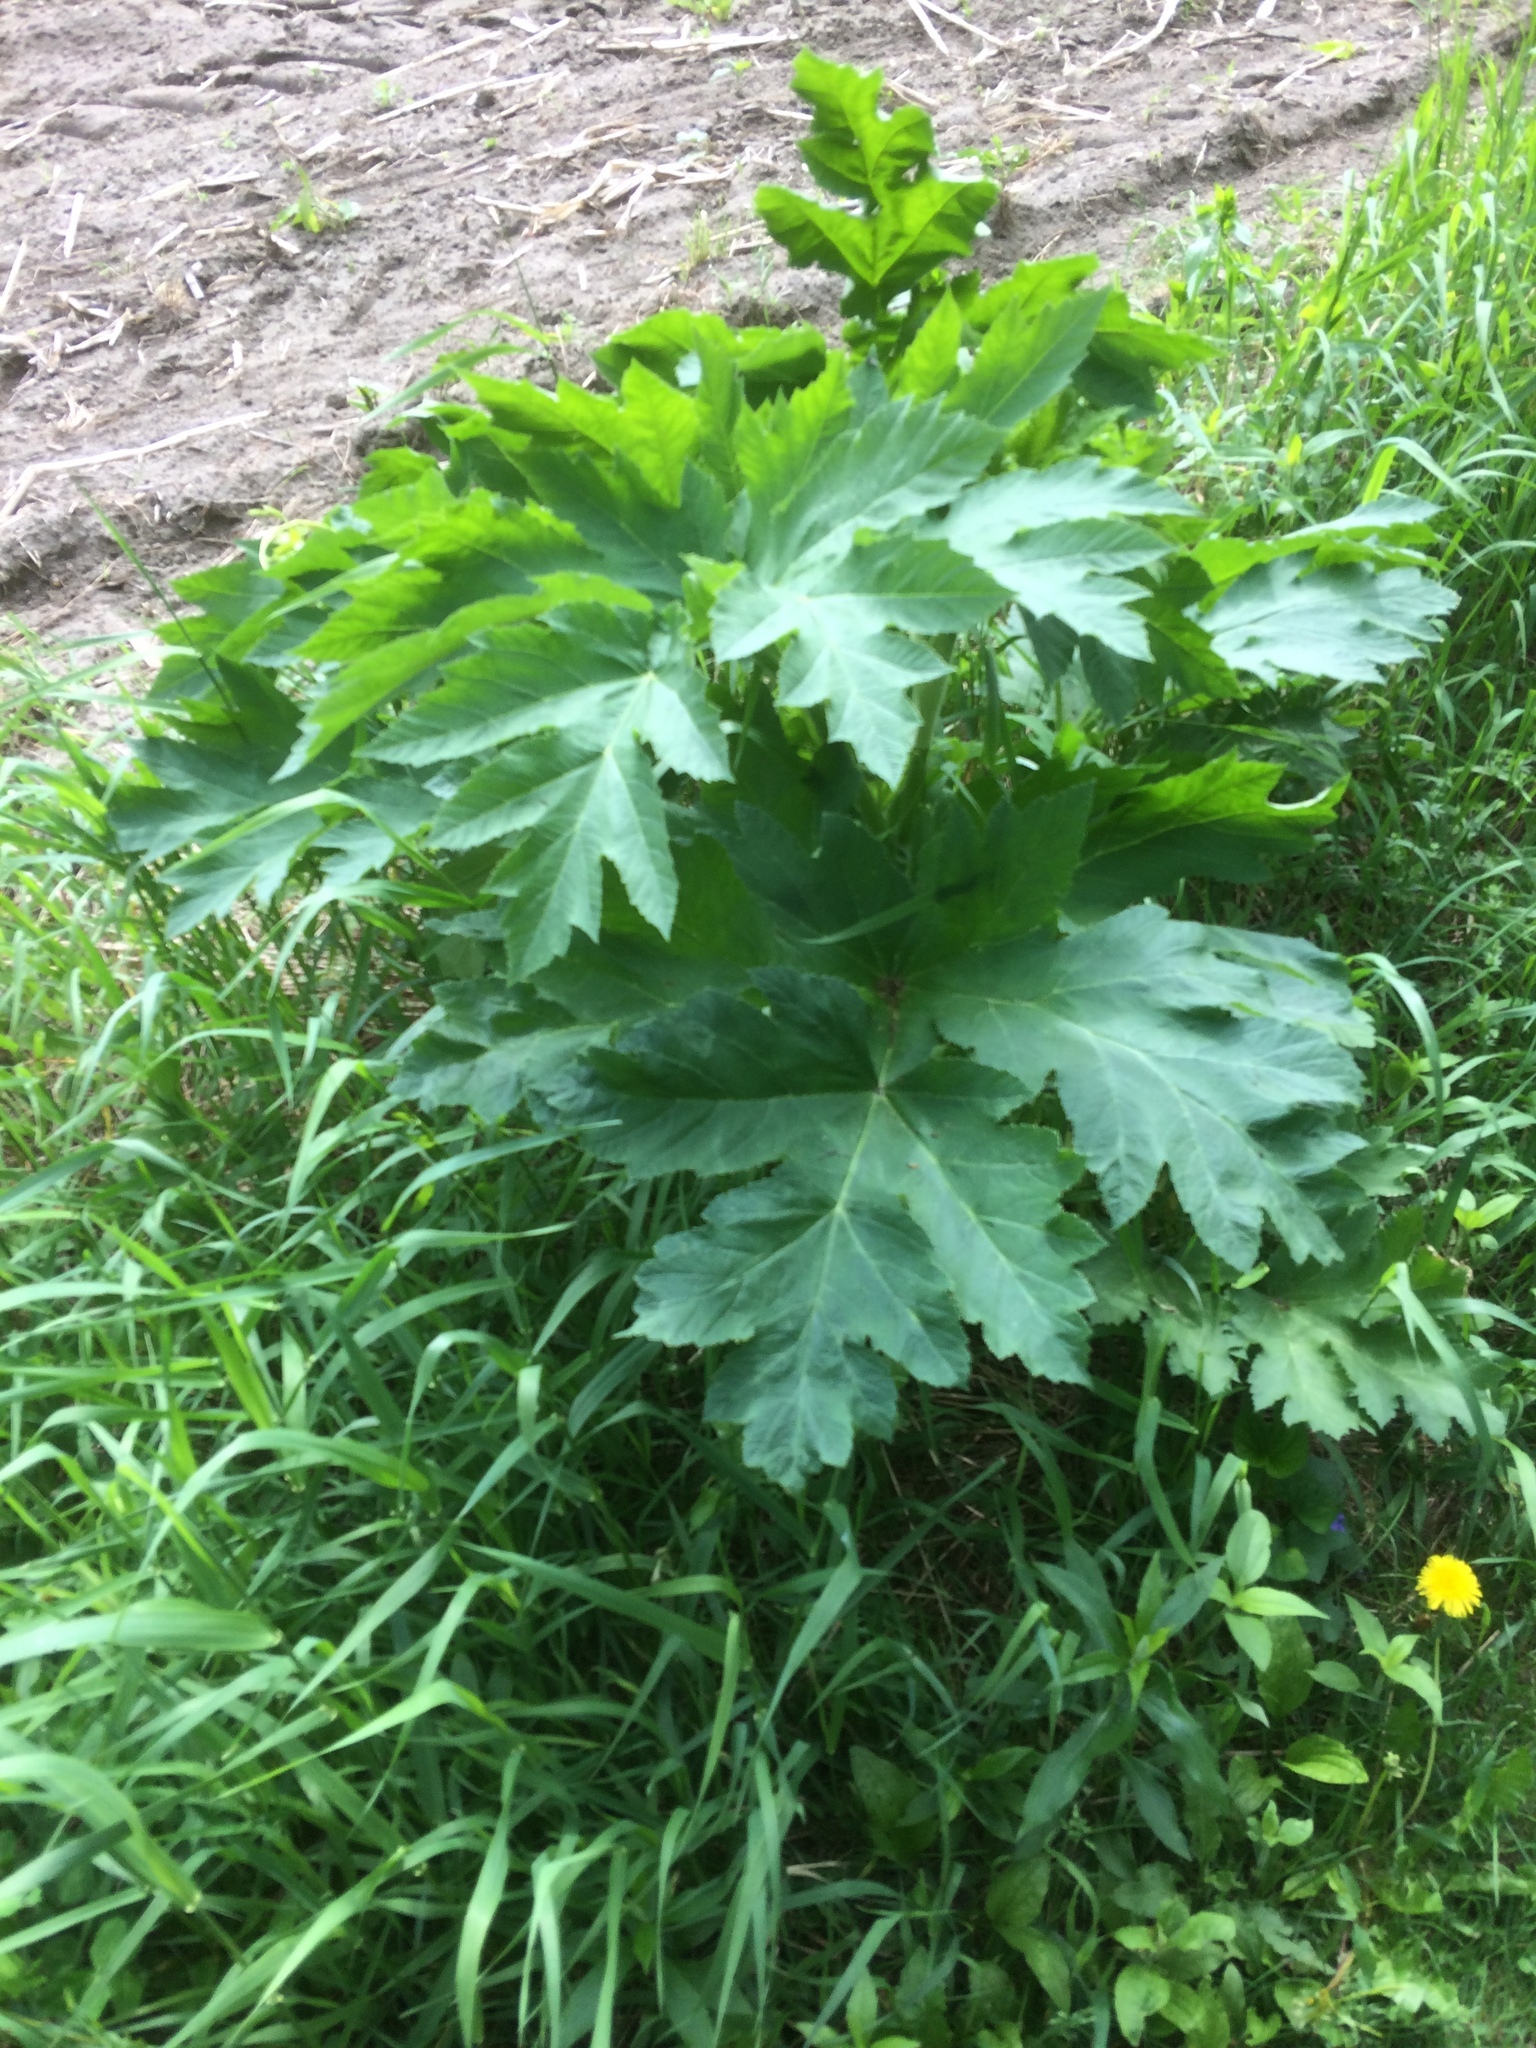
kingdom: Plantae
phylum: Tracheophyta
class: Magnoliopsida
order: Apiales
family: Apiaceae
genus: Heracleum
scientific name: Heracleum maximum
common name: American cow parsnip
